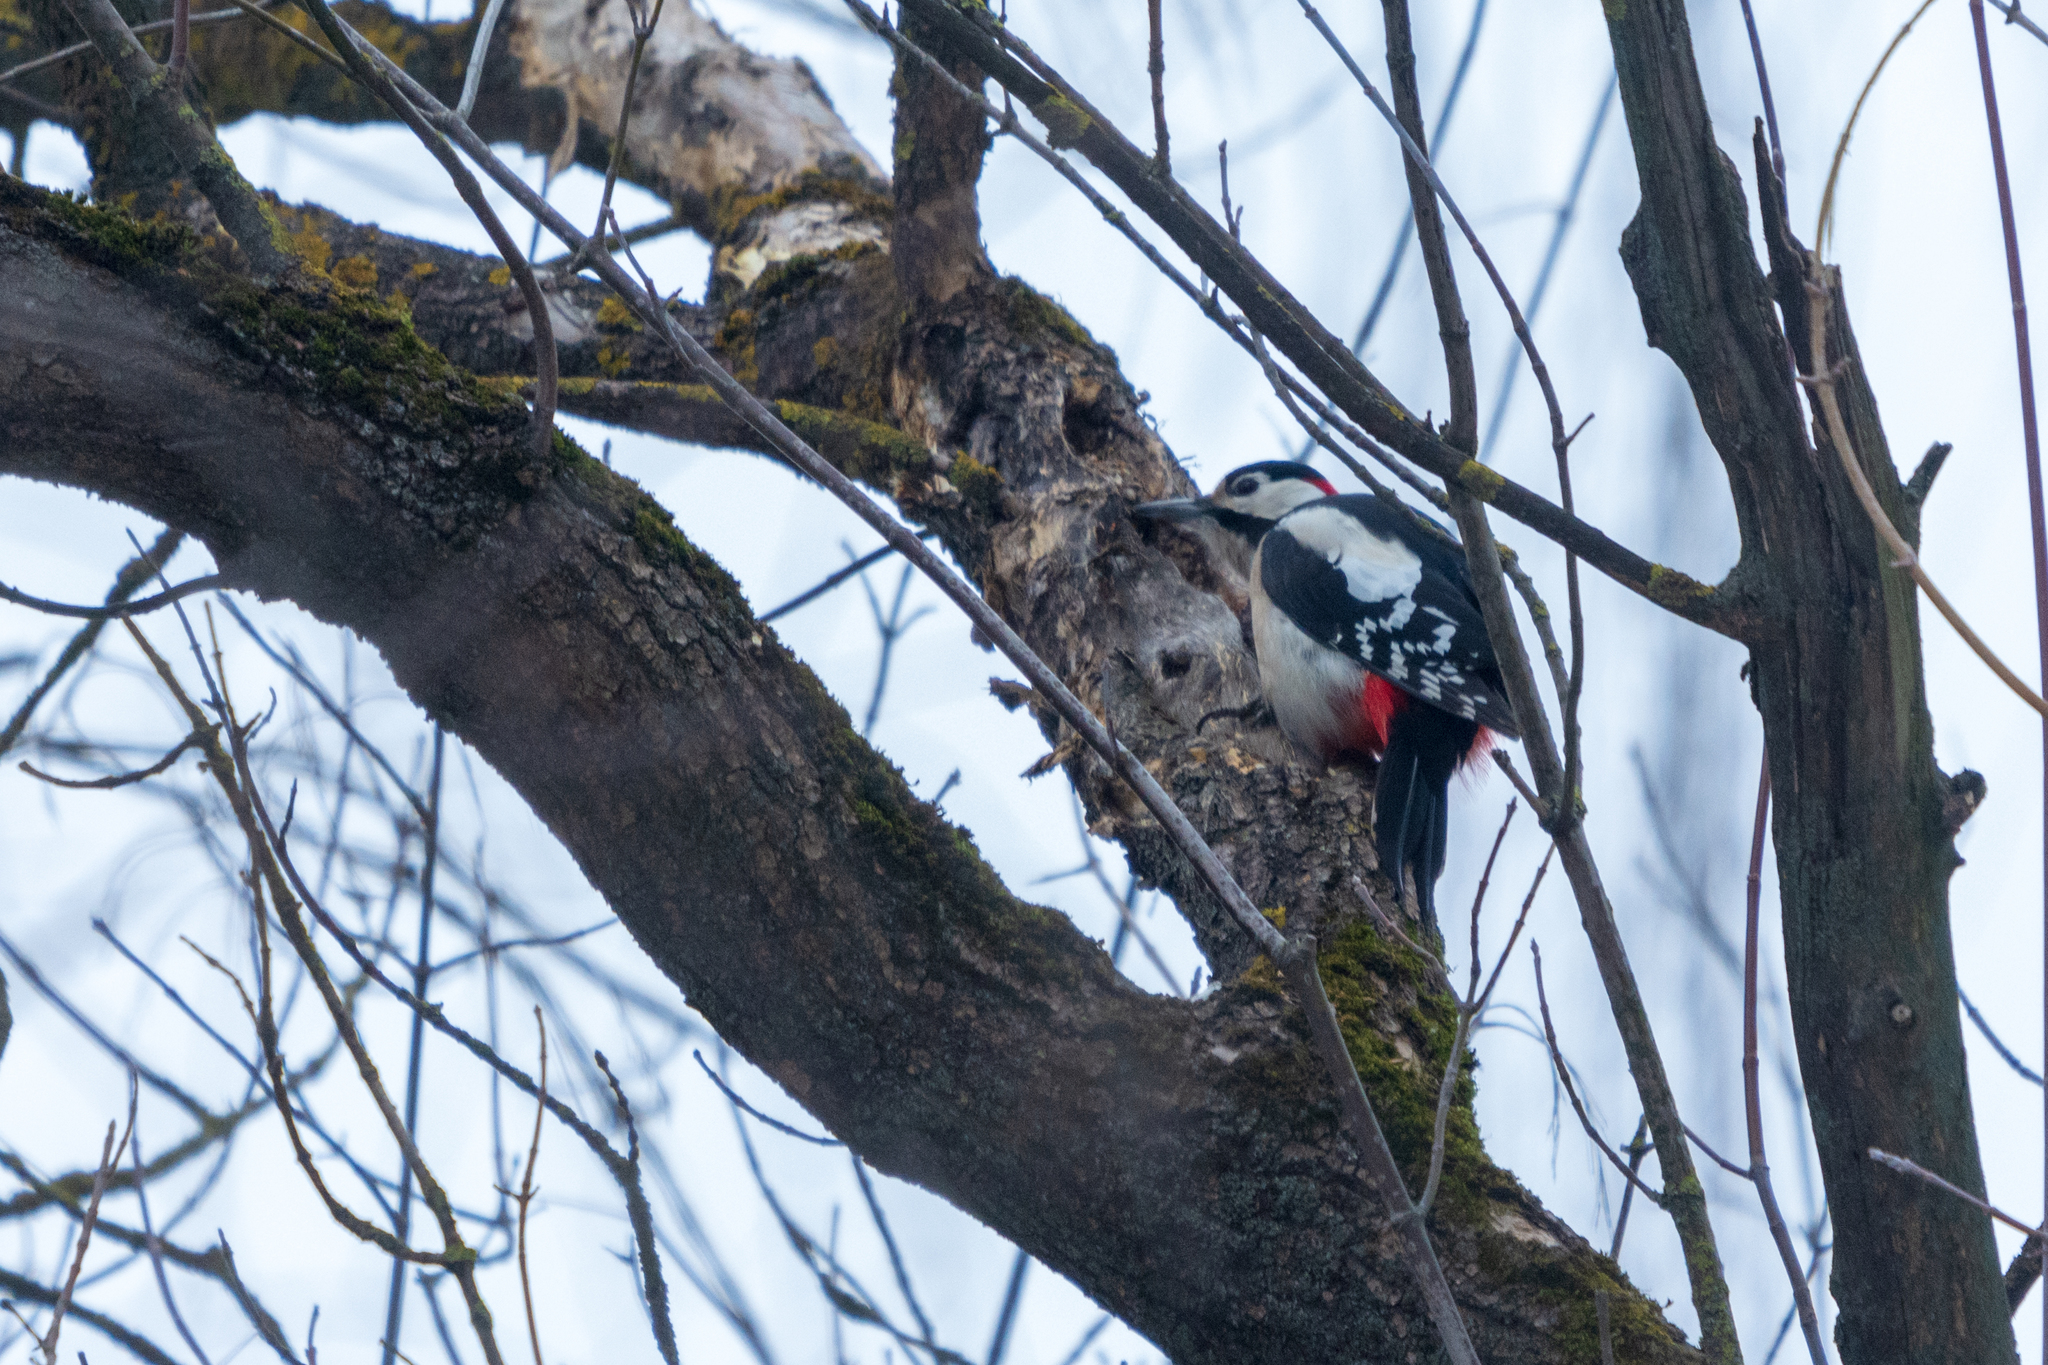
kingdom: Animalia
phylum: Chordata
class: Aves
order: Piciformes
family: Picidae
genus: Dendrocopos
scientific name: Dendrocopos major
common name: Great spotted woodpecker
